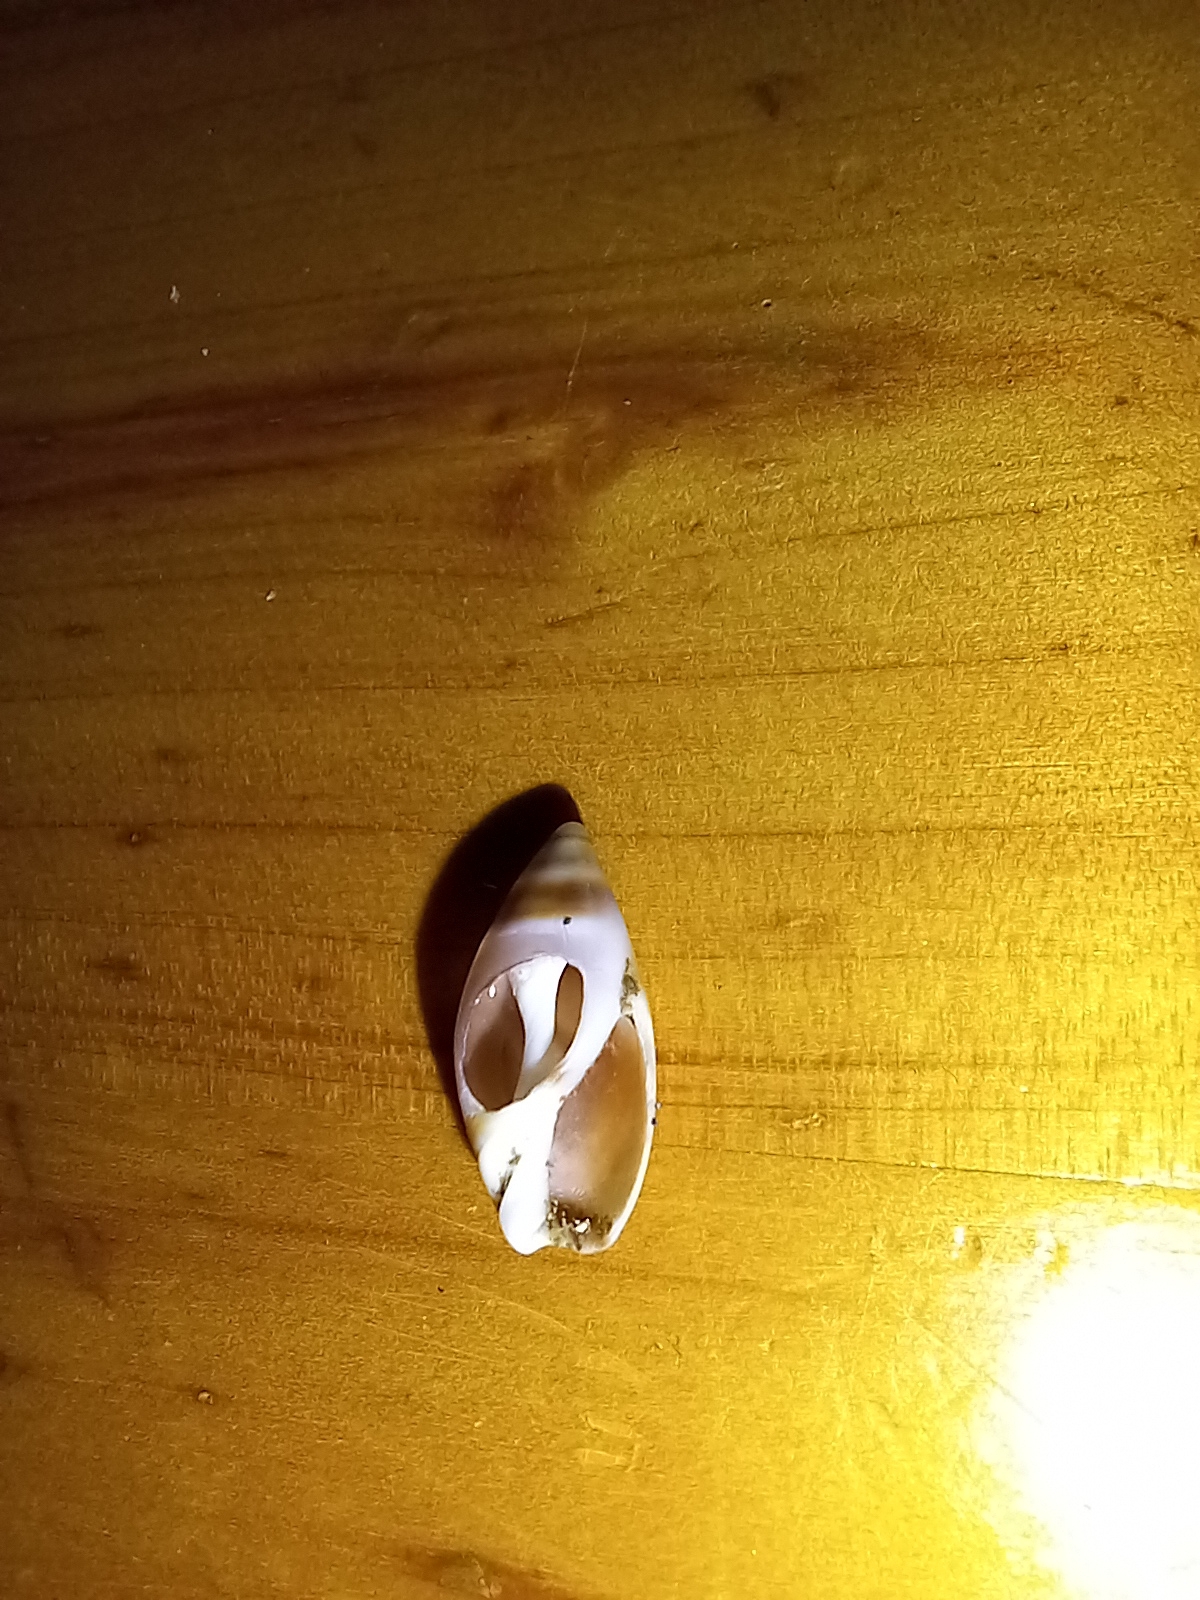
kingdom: Animalia
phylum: Mollusca
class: Gastropoda
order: Neogastropoda
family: Ancillariidae
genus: Amalda
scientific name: Amalda novaezelandiae
